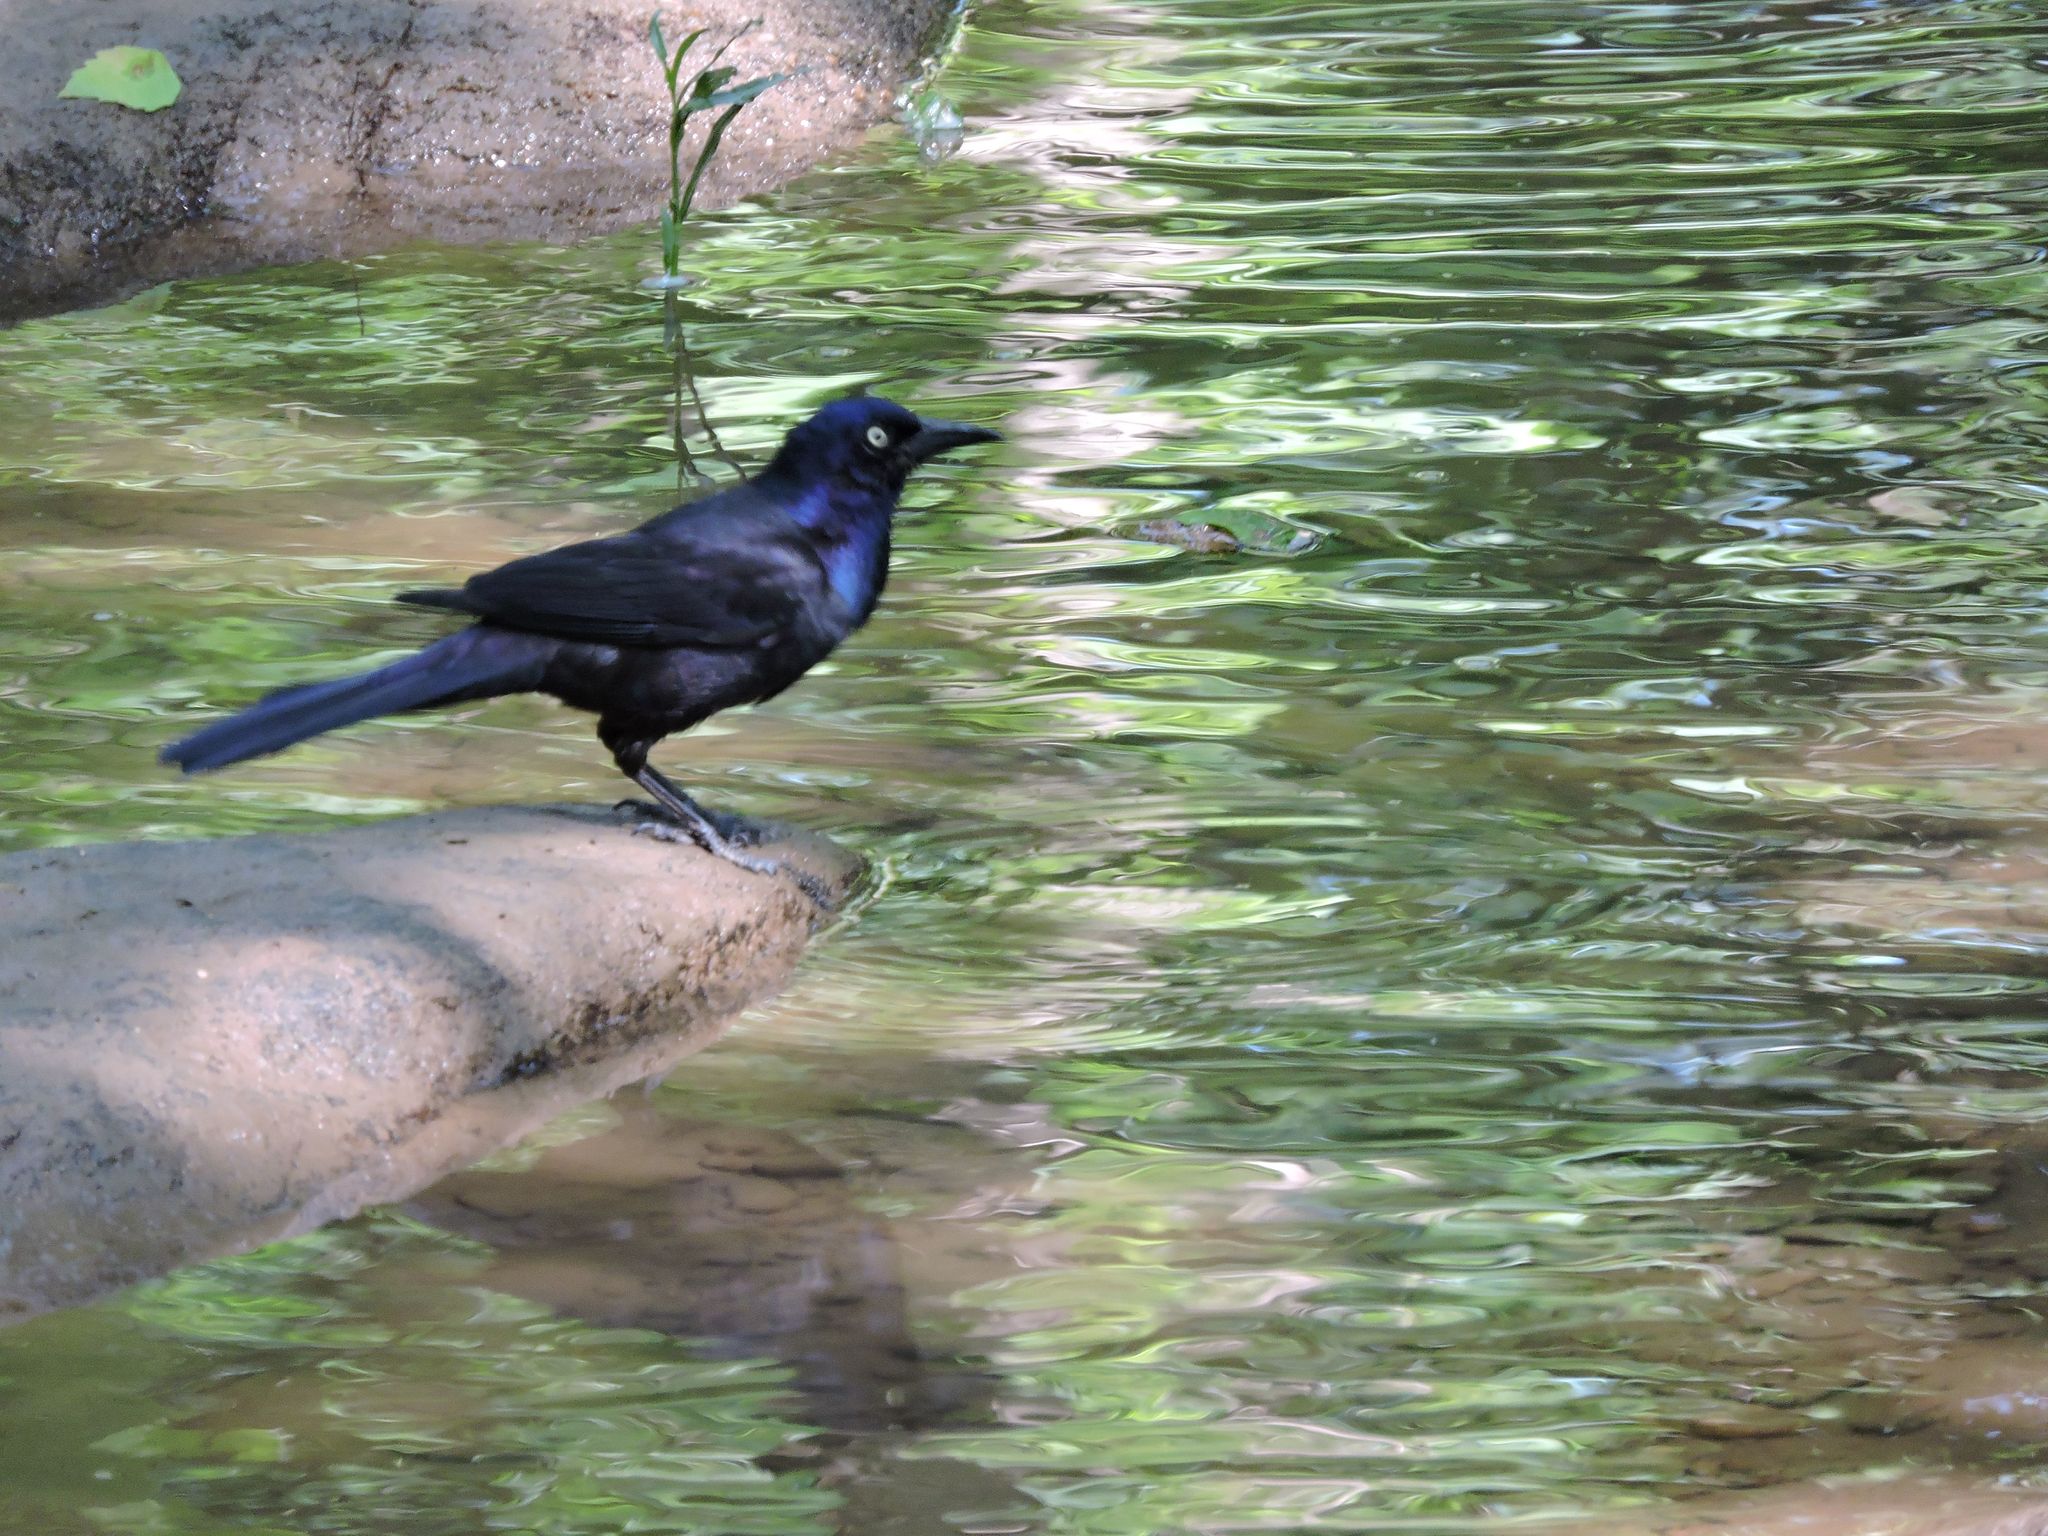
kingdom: Animalia
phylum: Chordata
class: Aves
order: Passeriformes
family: Icteridae
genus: Quiscalus
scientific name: Quiscalus quiscula
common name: Common grackle
